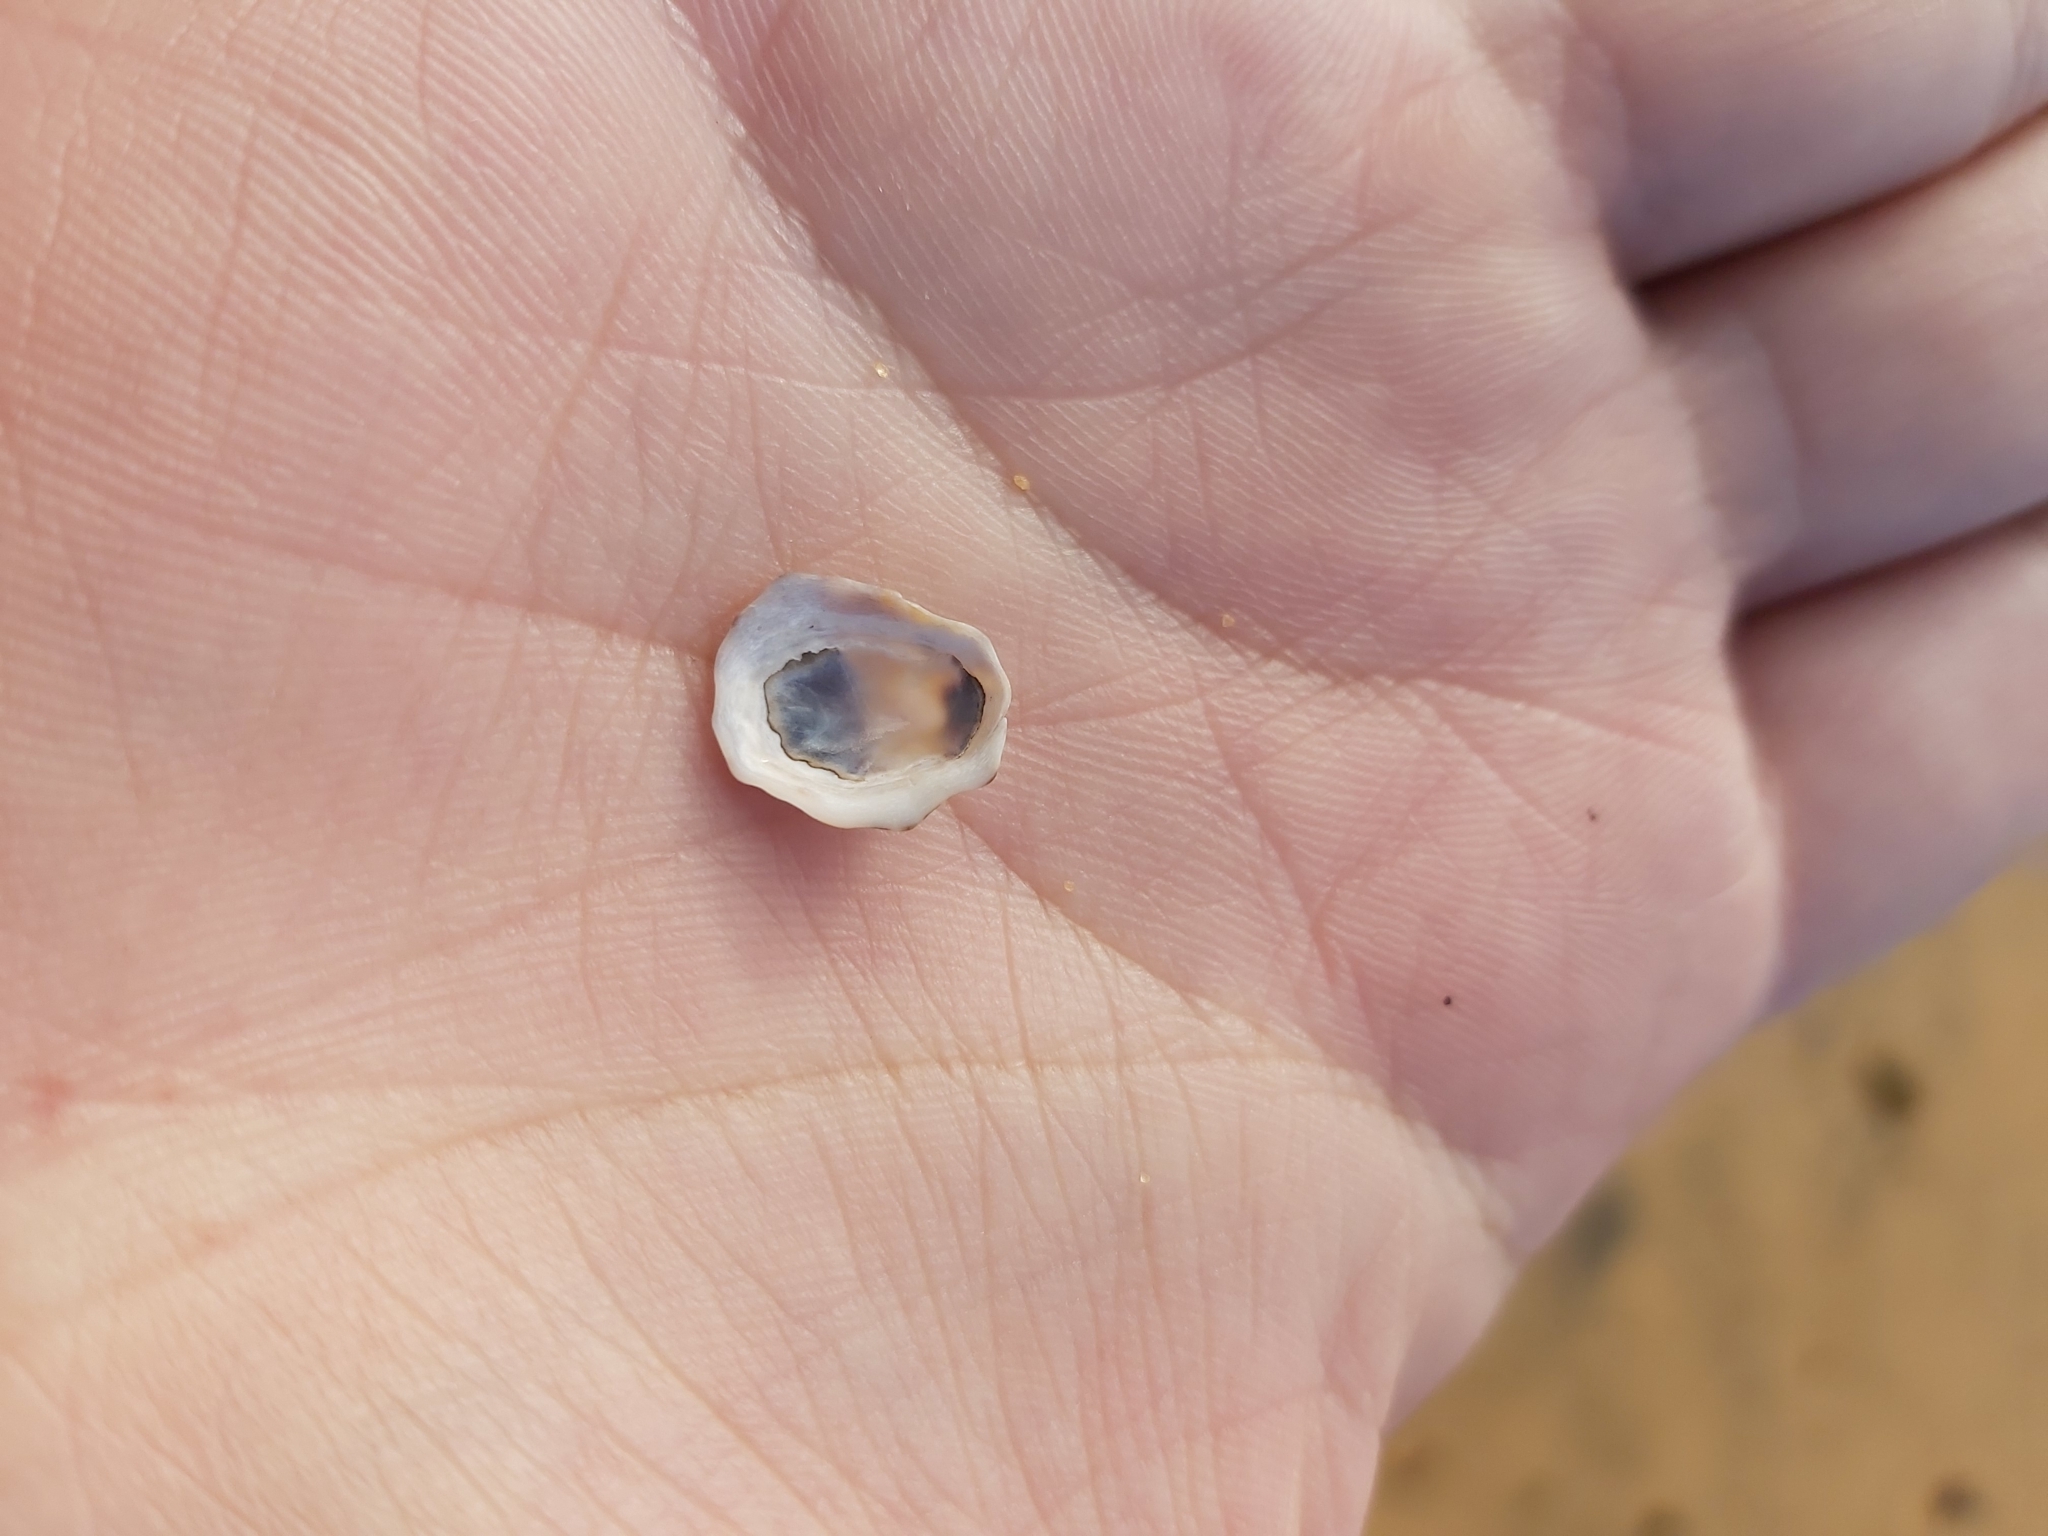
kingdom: Animalia
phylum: Mollusca
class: Gastropoda
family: Lottiidae
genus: Patelloida
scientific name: Patelloida alticostata
